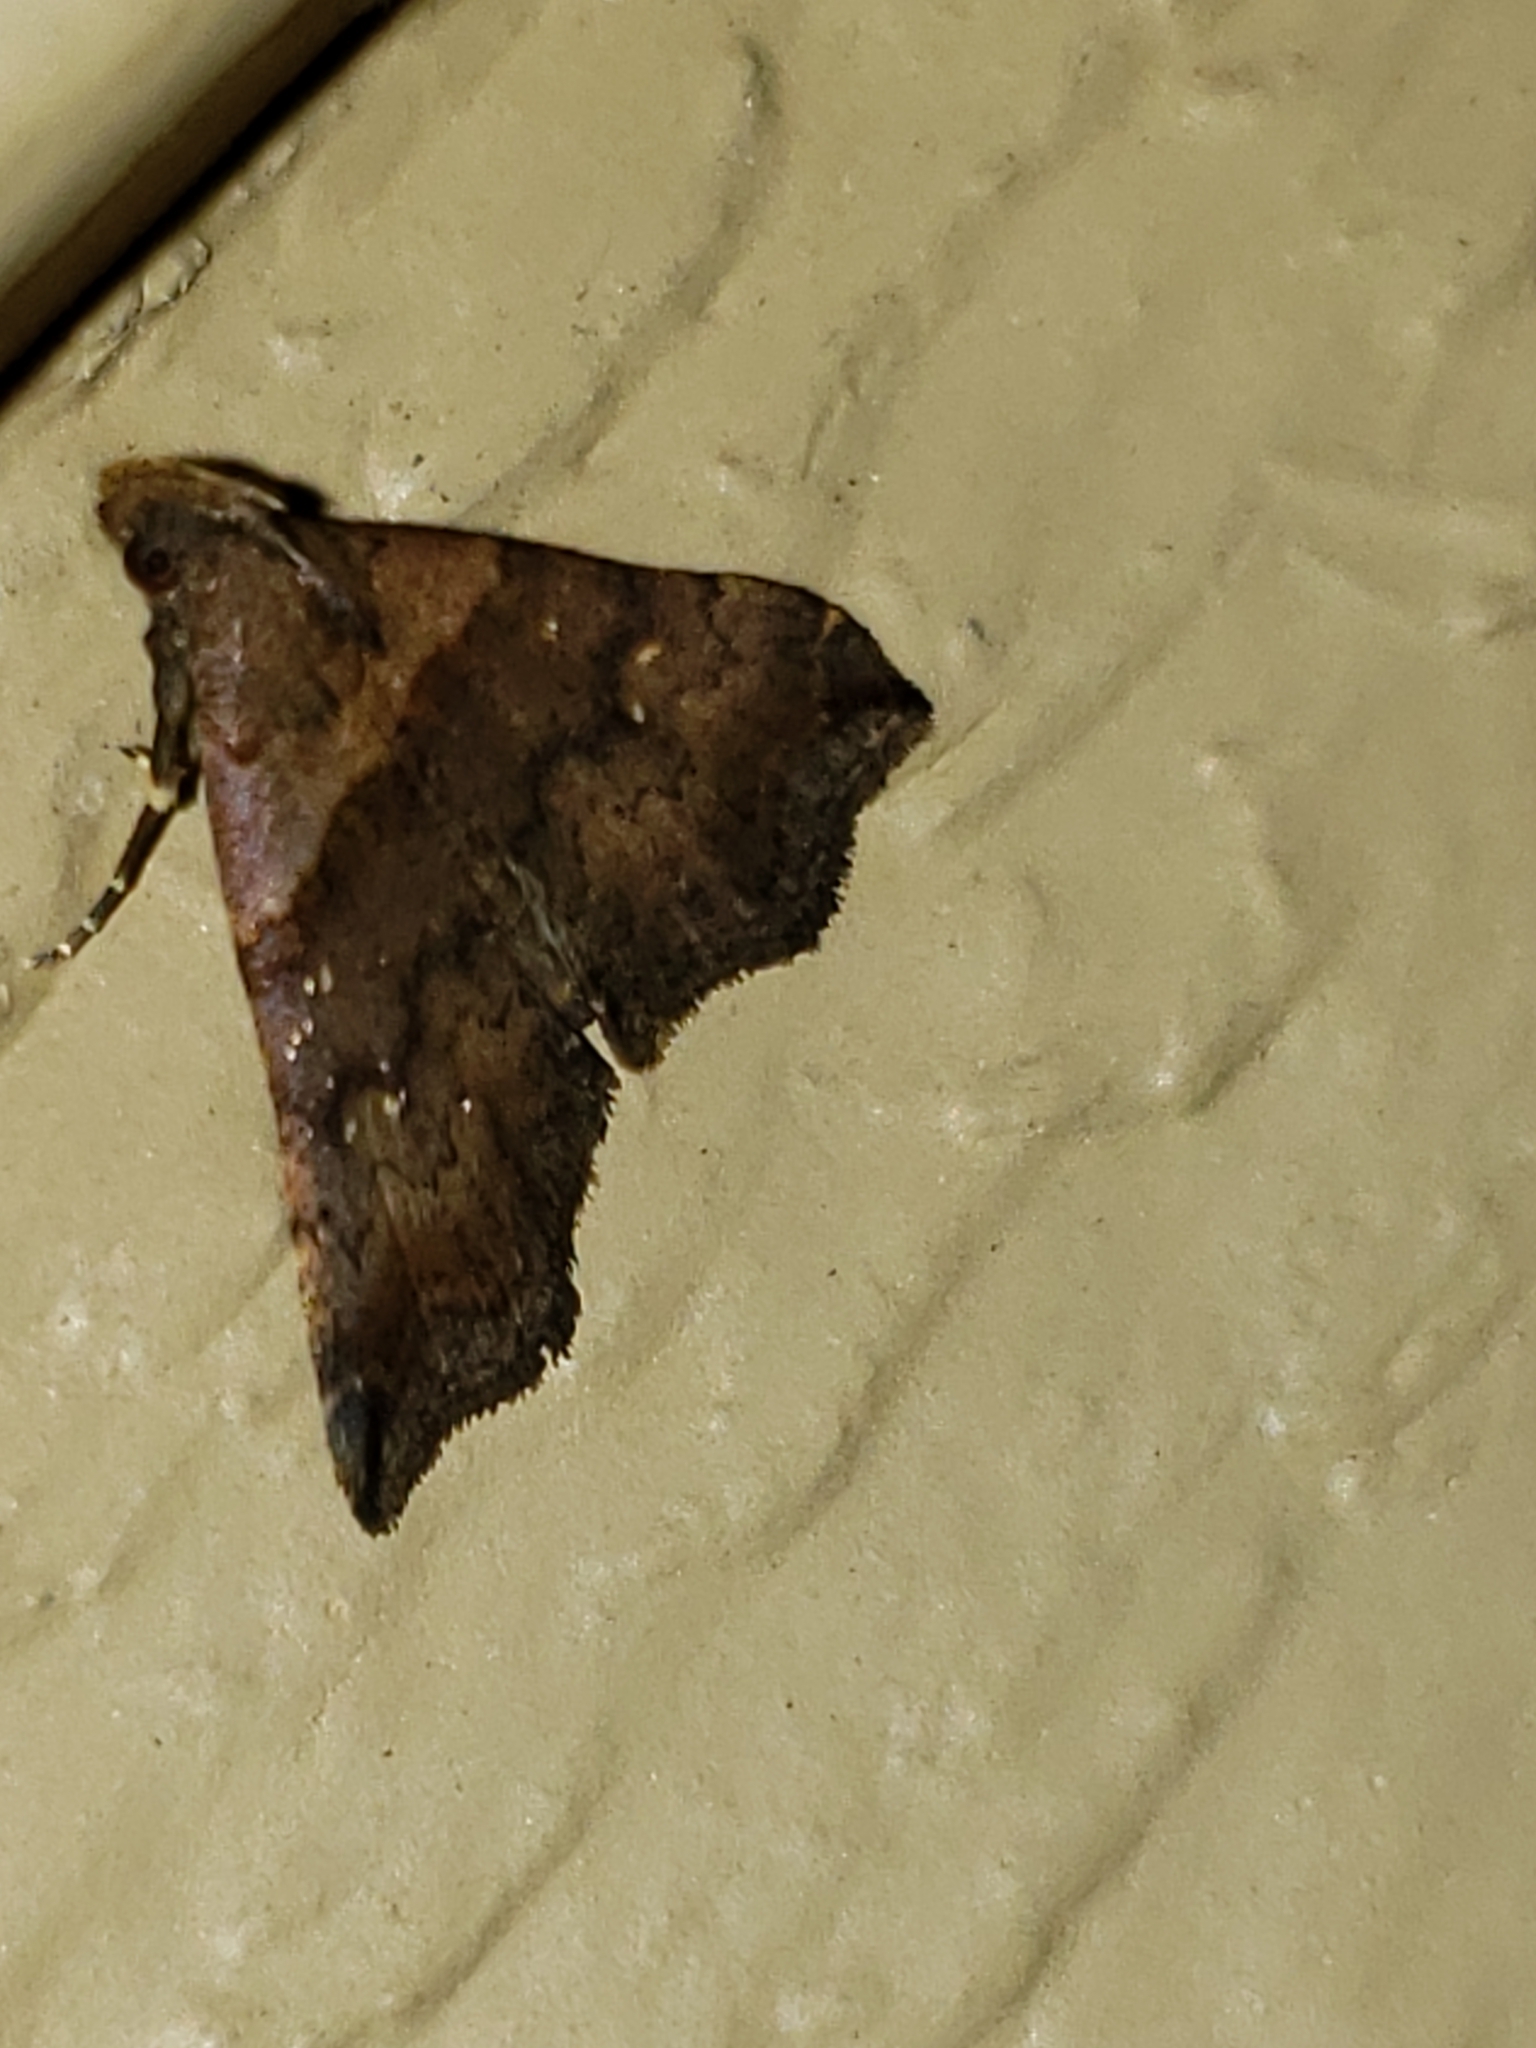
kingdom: Animalia
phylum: Arthropoda
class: Insecta
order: Lepidoptera
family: Erebidae
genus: Lascoria
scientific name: Lascoria ambigualis
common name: Ambiguous moth
